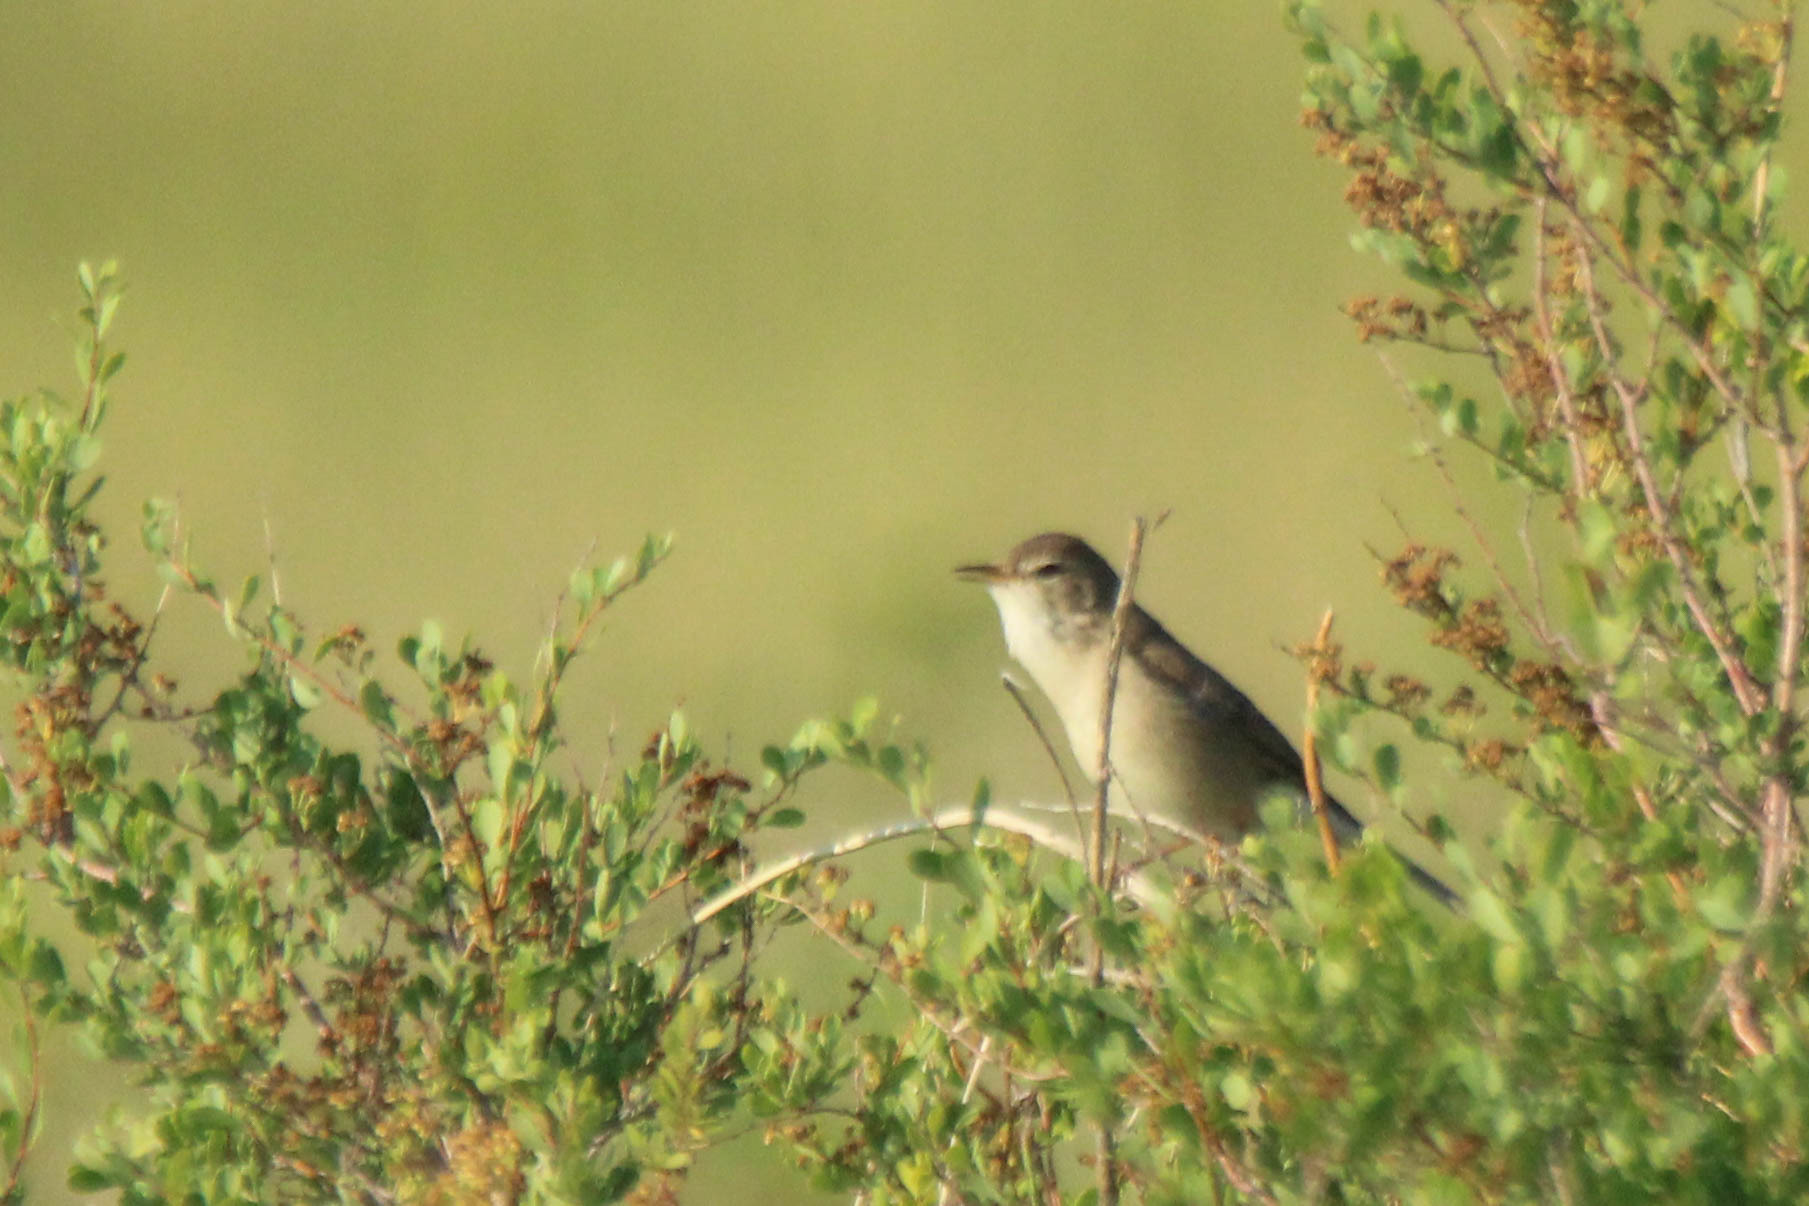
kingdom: Animalia
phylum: Chordata
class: Aves
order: Passeriformes
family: Acrocephalidae
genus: Iduna
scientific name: Iduna caligata
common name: Booted warbler
